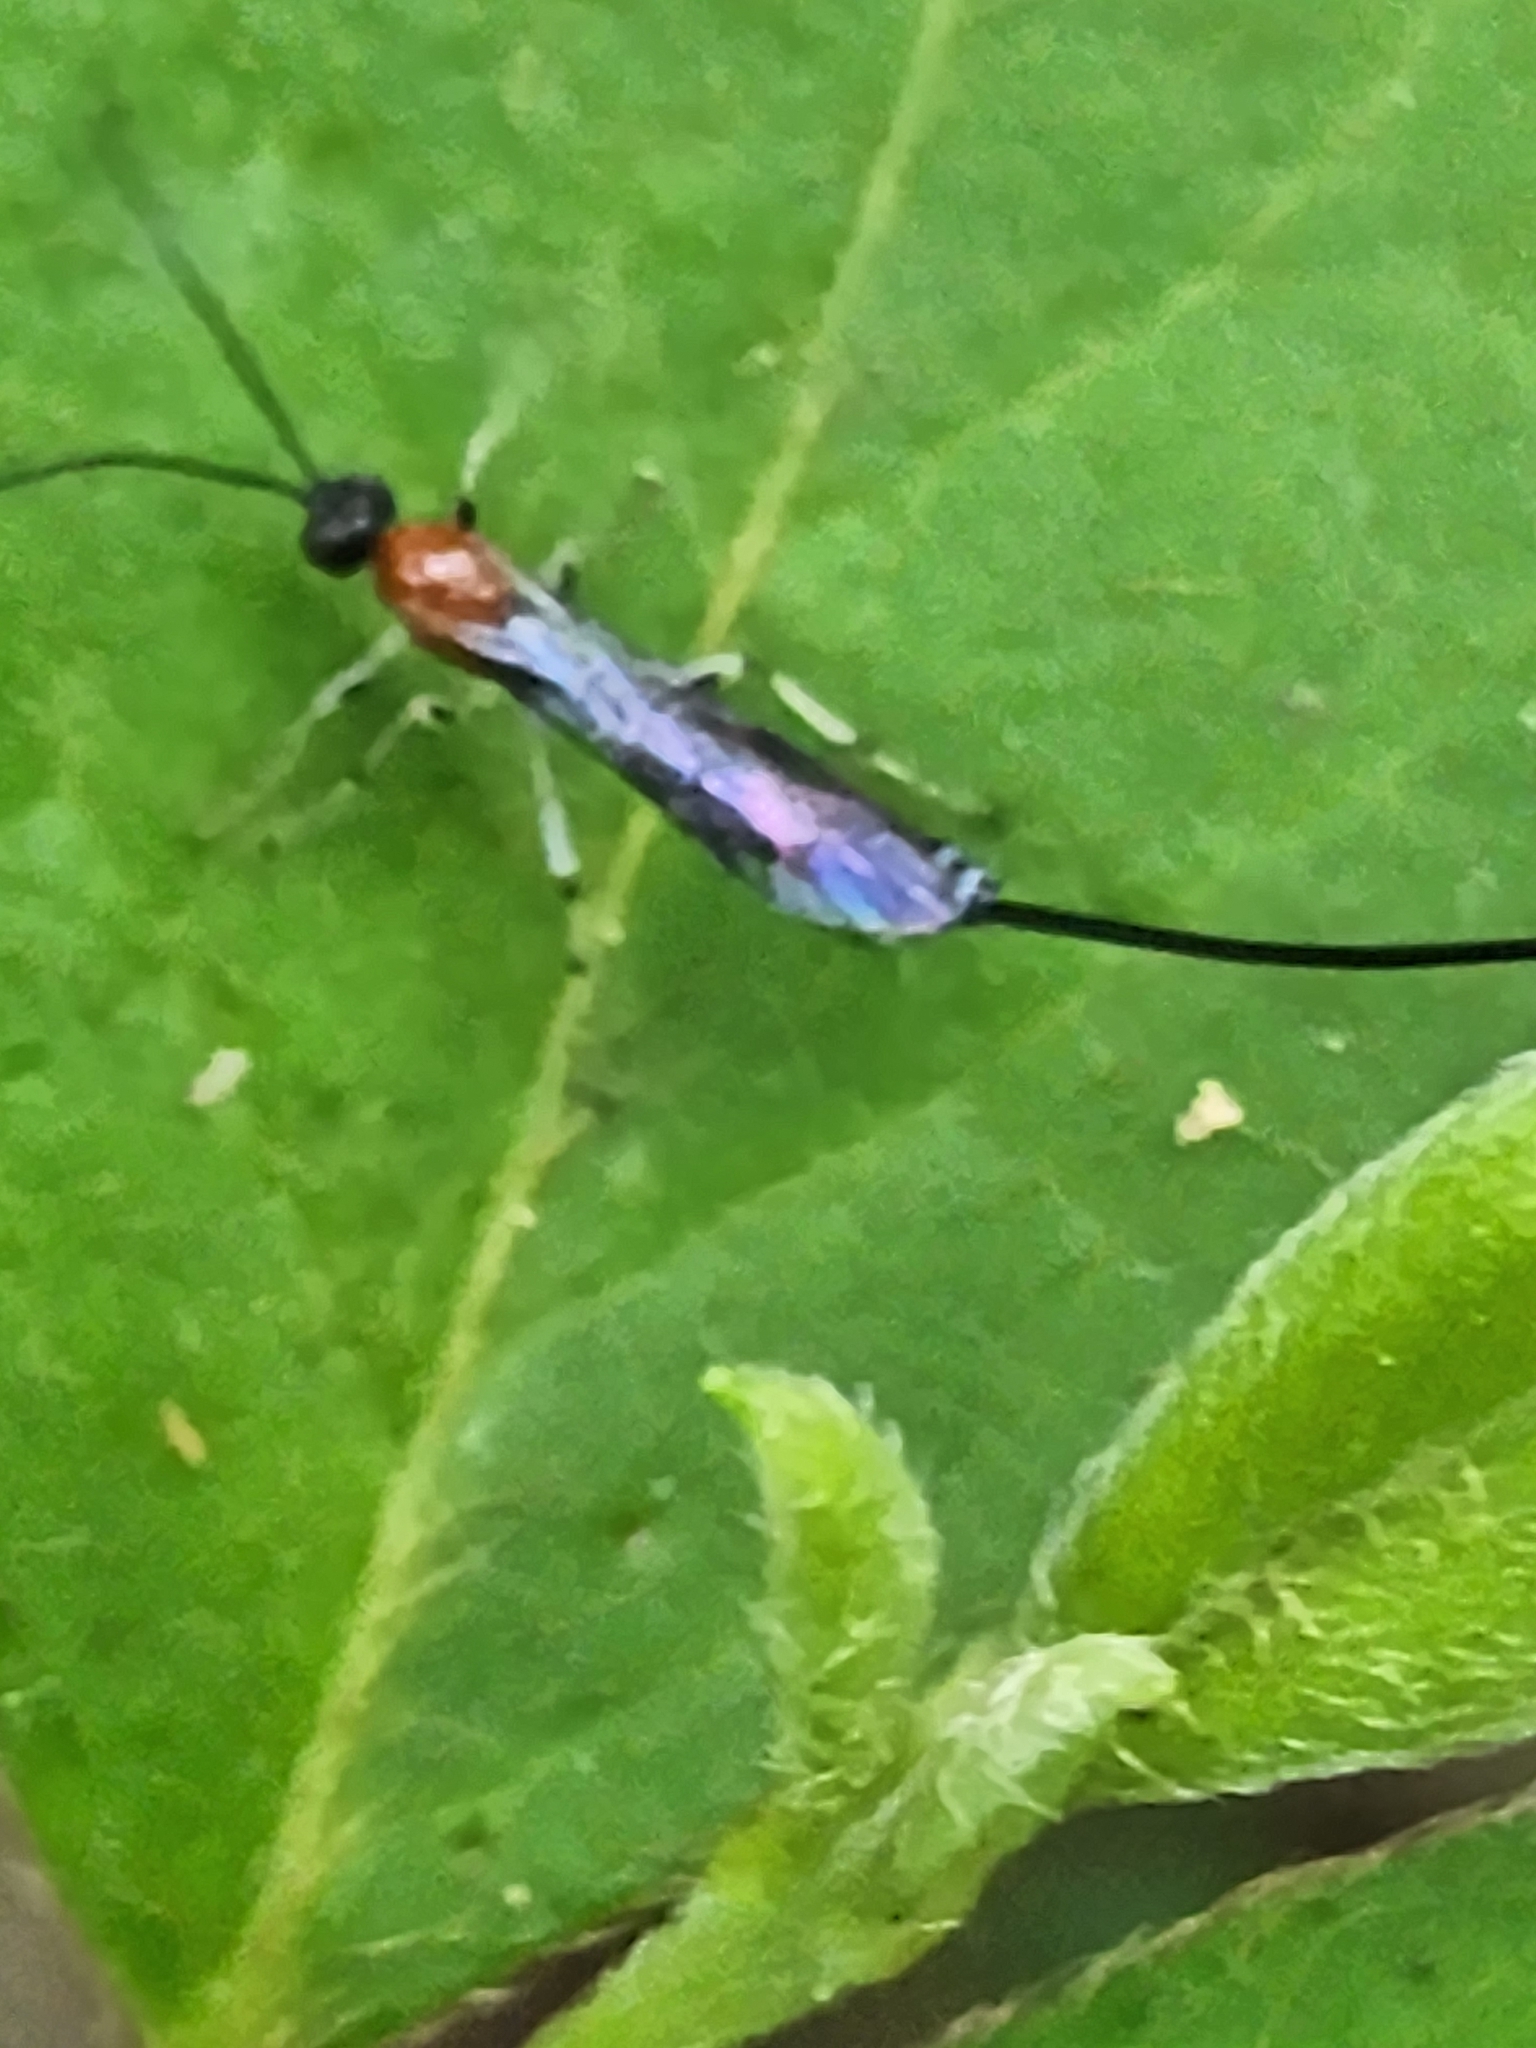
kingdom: Animalia
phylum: Arthropoda
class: Insecta
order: Hymenoptera
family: Ichneumonidae
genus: Calliephialtes
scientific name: Calliephialtes grapholithae
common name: Parasitoid wasp
